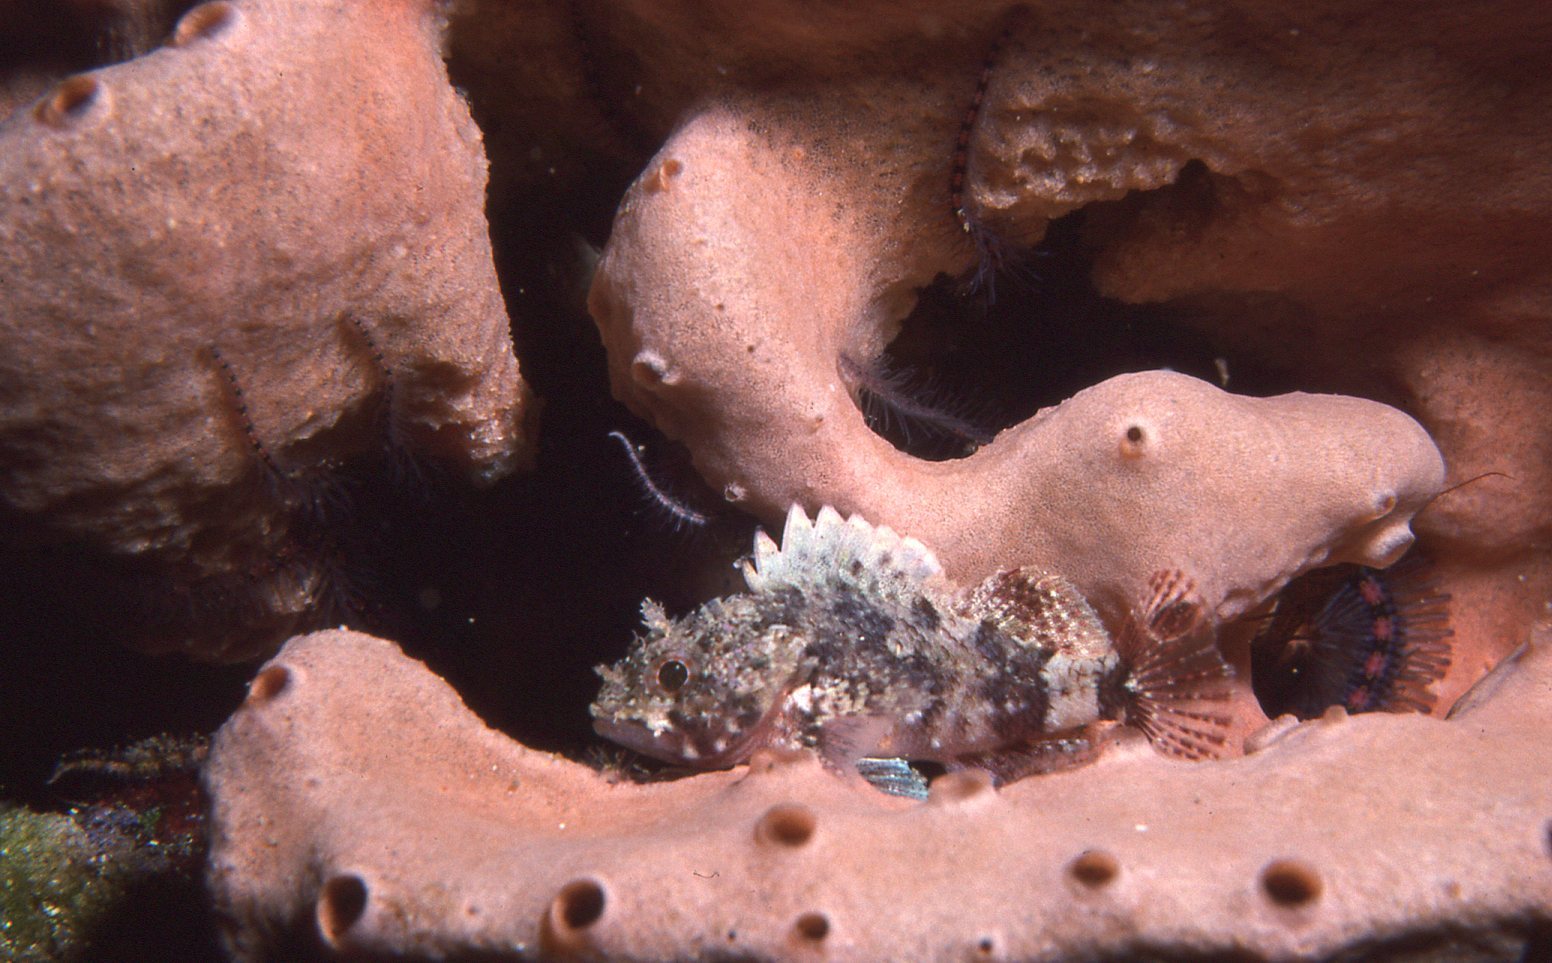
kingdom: Animalia
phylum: Chordata
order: Scorpaeniformes
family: Scorpaenidae
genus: Scorpaena
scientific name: Scorpaena papillosa
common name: Chained scorpionfish
